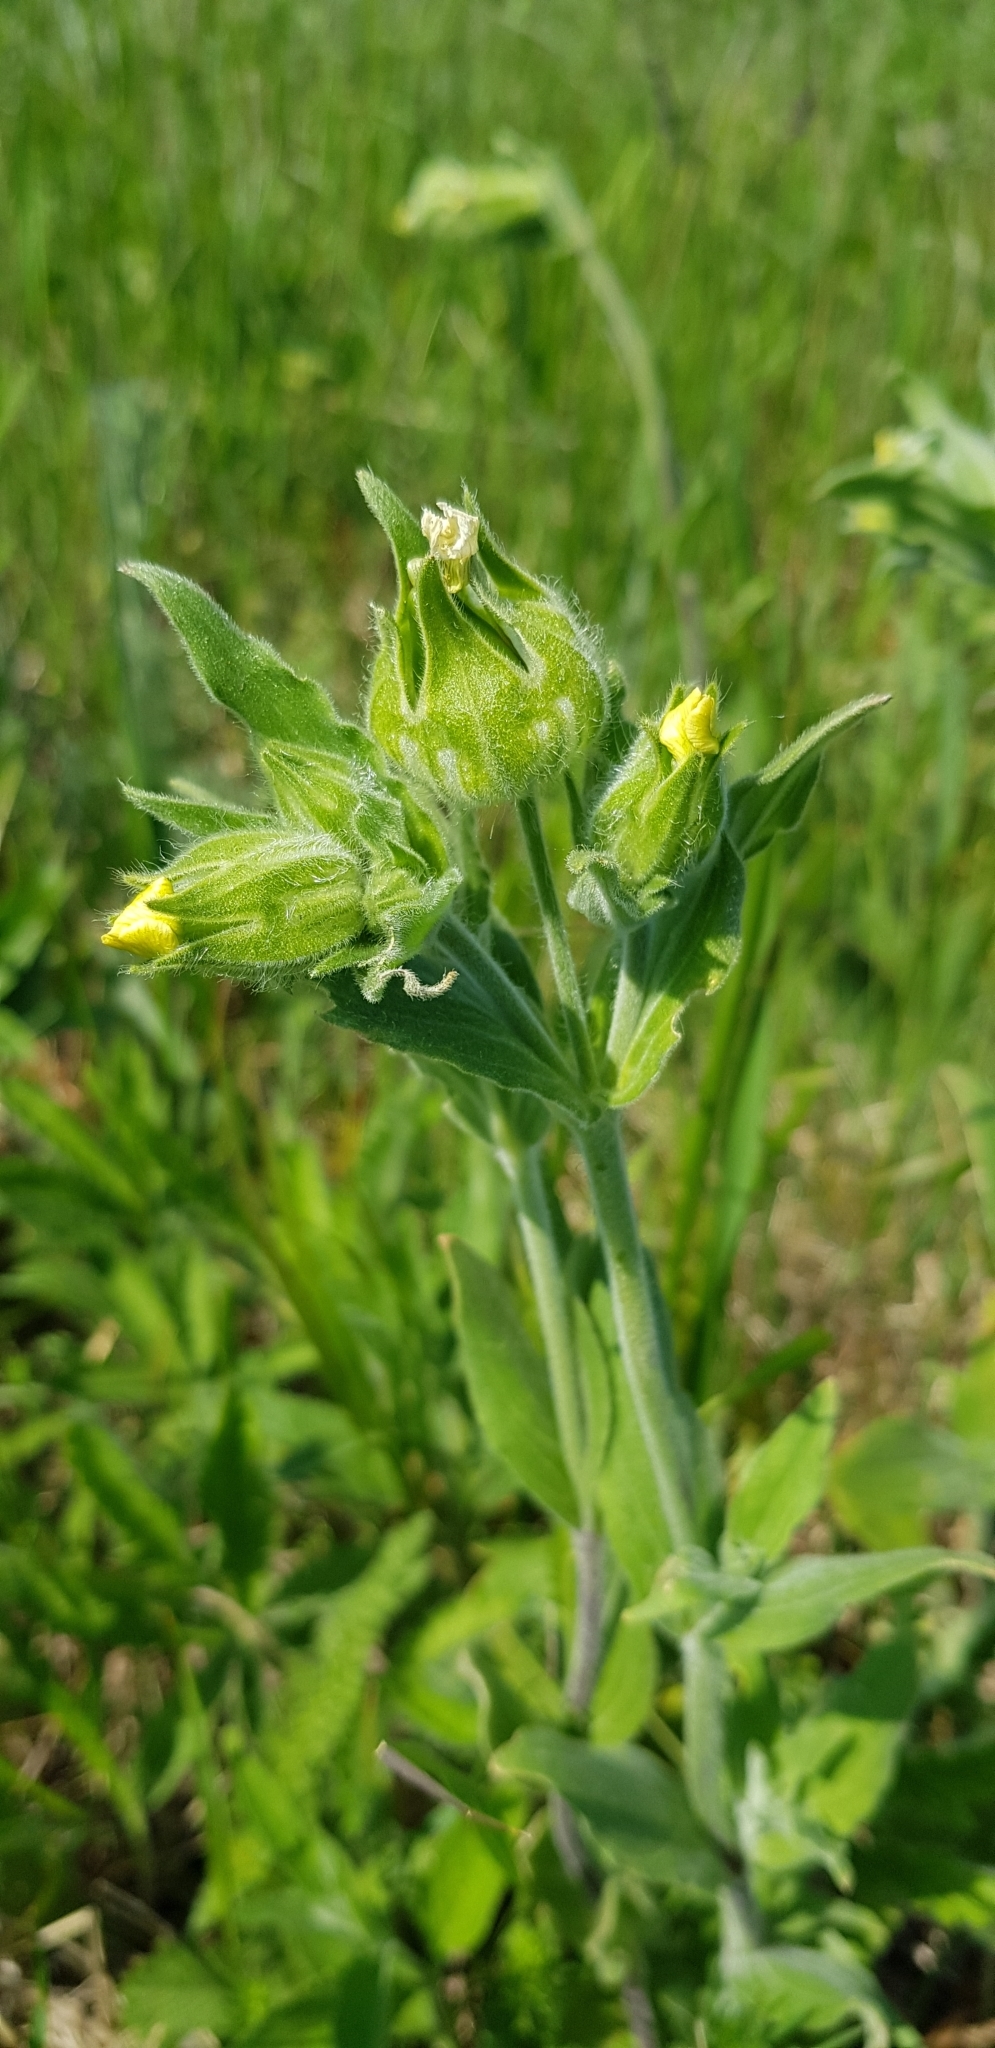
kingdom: Plantae
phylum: Tracheophyta
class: Magnoliopsida
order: Caryophyllales
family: Caryophyllaceae
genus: Silene
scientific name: Silene latifolia
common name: White campion
